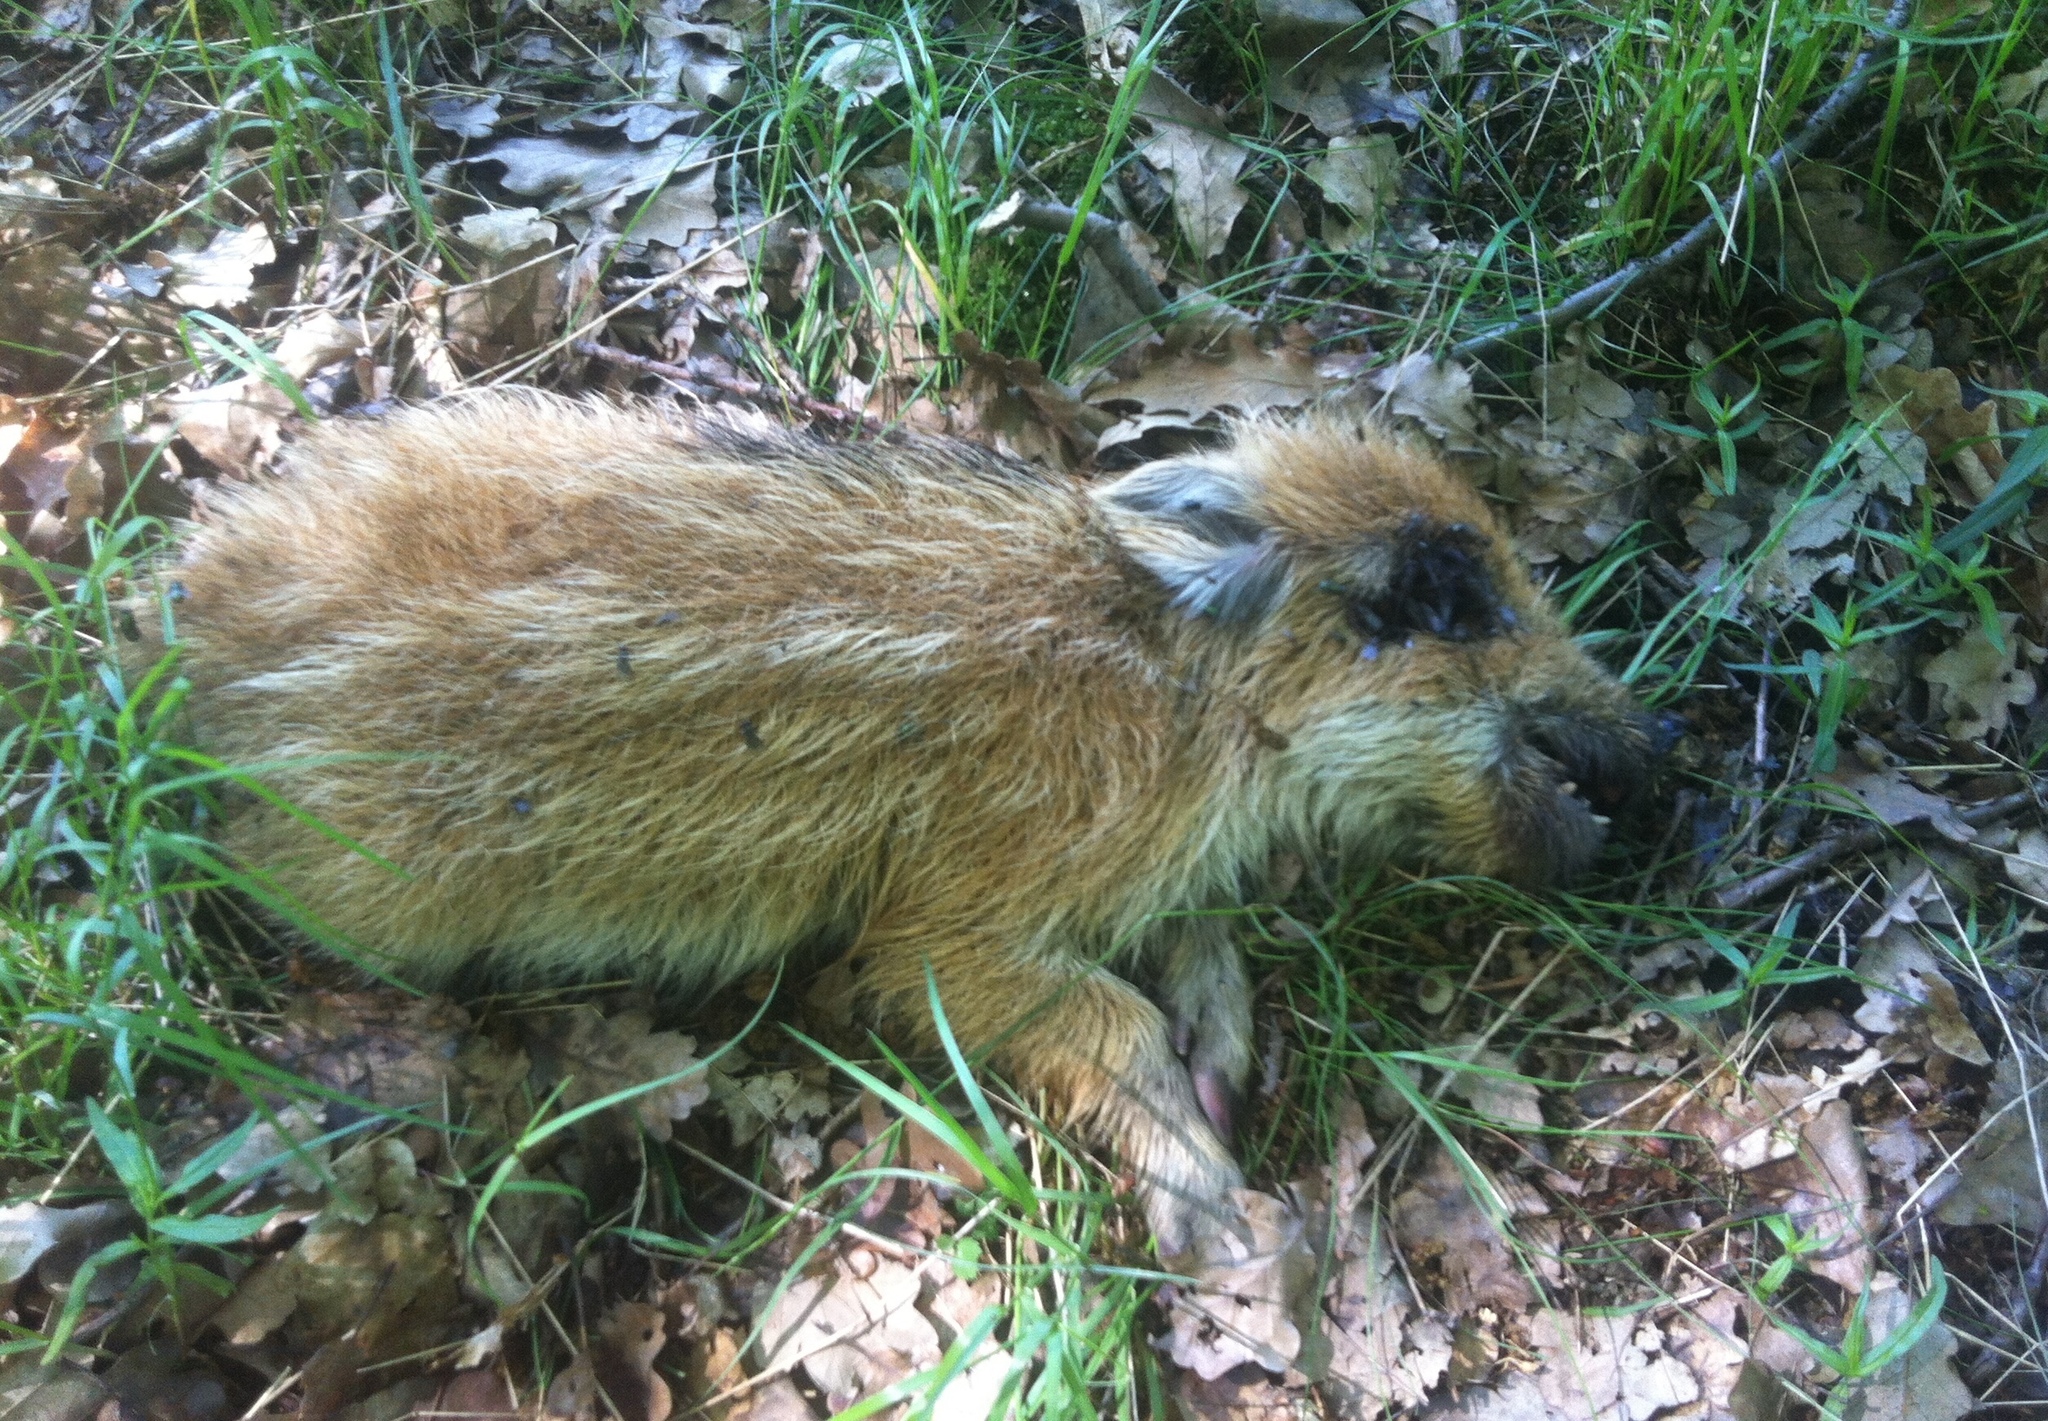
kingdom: Animalia
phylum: Chordata
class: Mammalia
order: Artiodactyla
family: Suidae
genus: Sus
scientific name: Sus scrofa
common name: Wild boar
